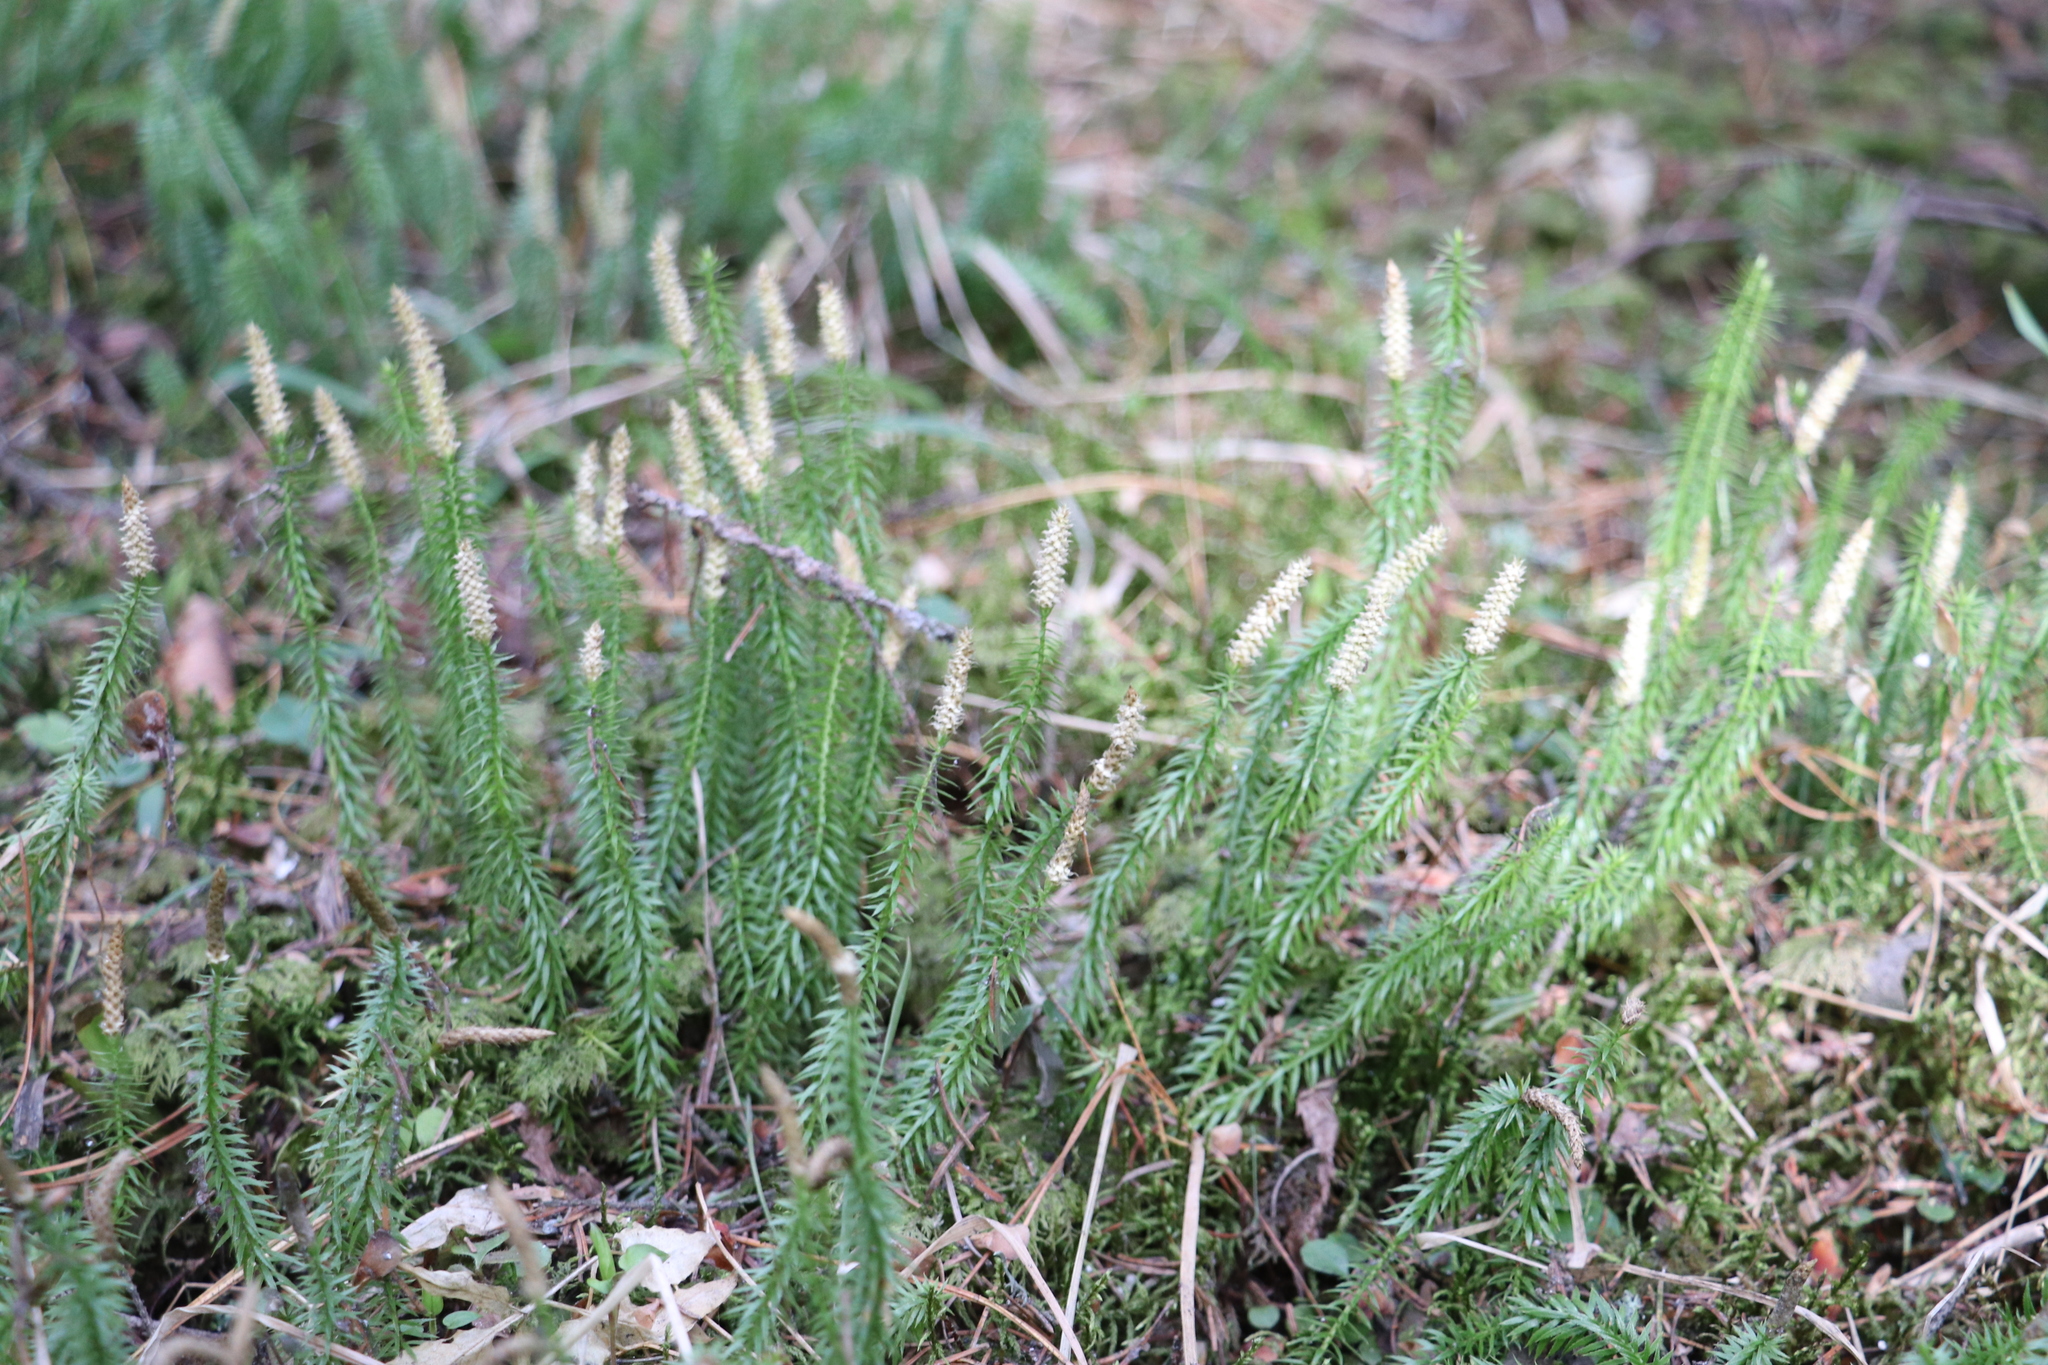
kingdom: Plantae
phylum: Tracheophyta
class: Lycopodiopsida
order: Lycopodiales
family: Lycopodiaceae
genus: Spinulum
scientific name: Spinulum annotinum
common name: Interrupted club-moss
